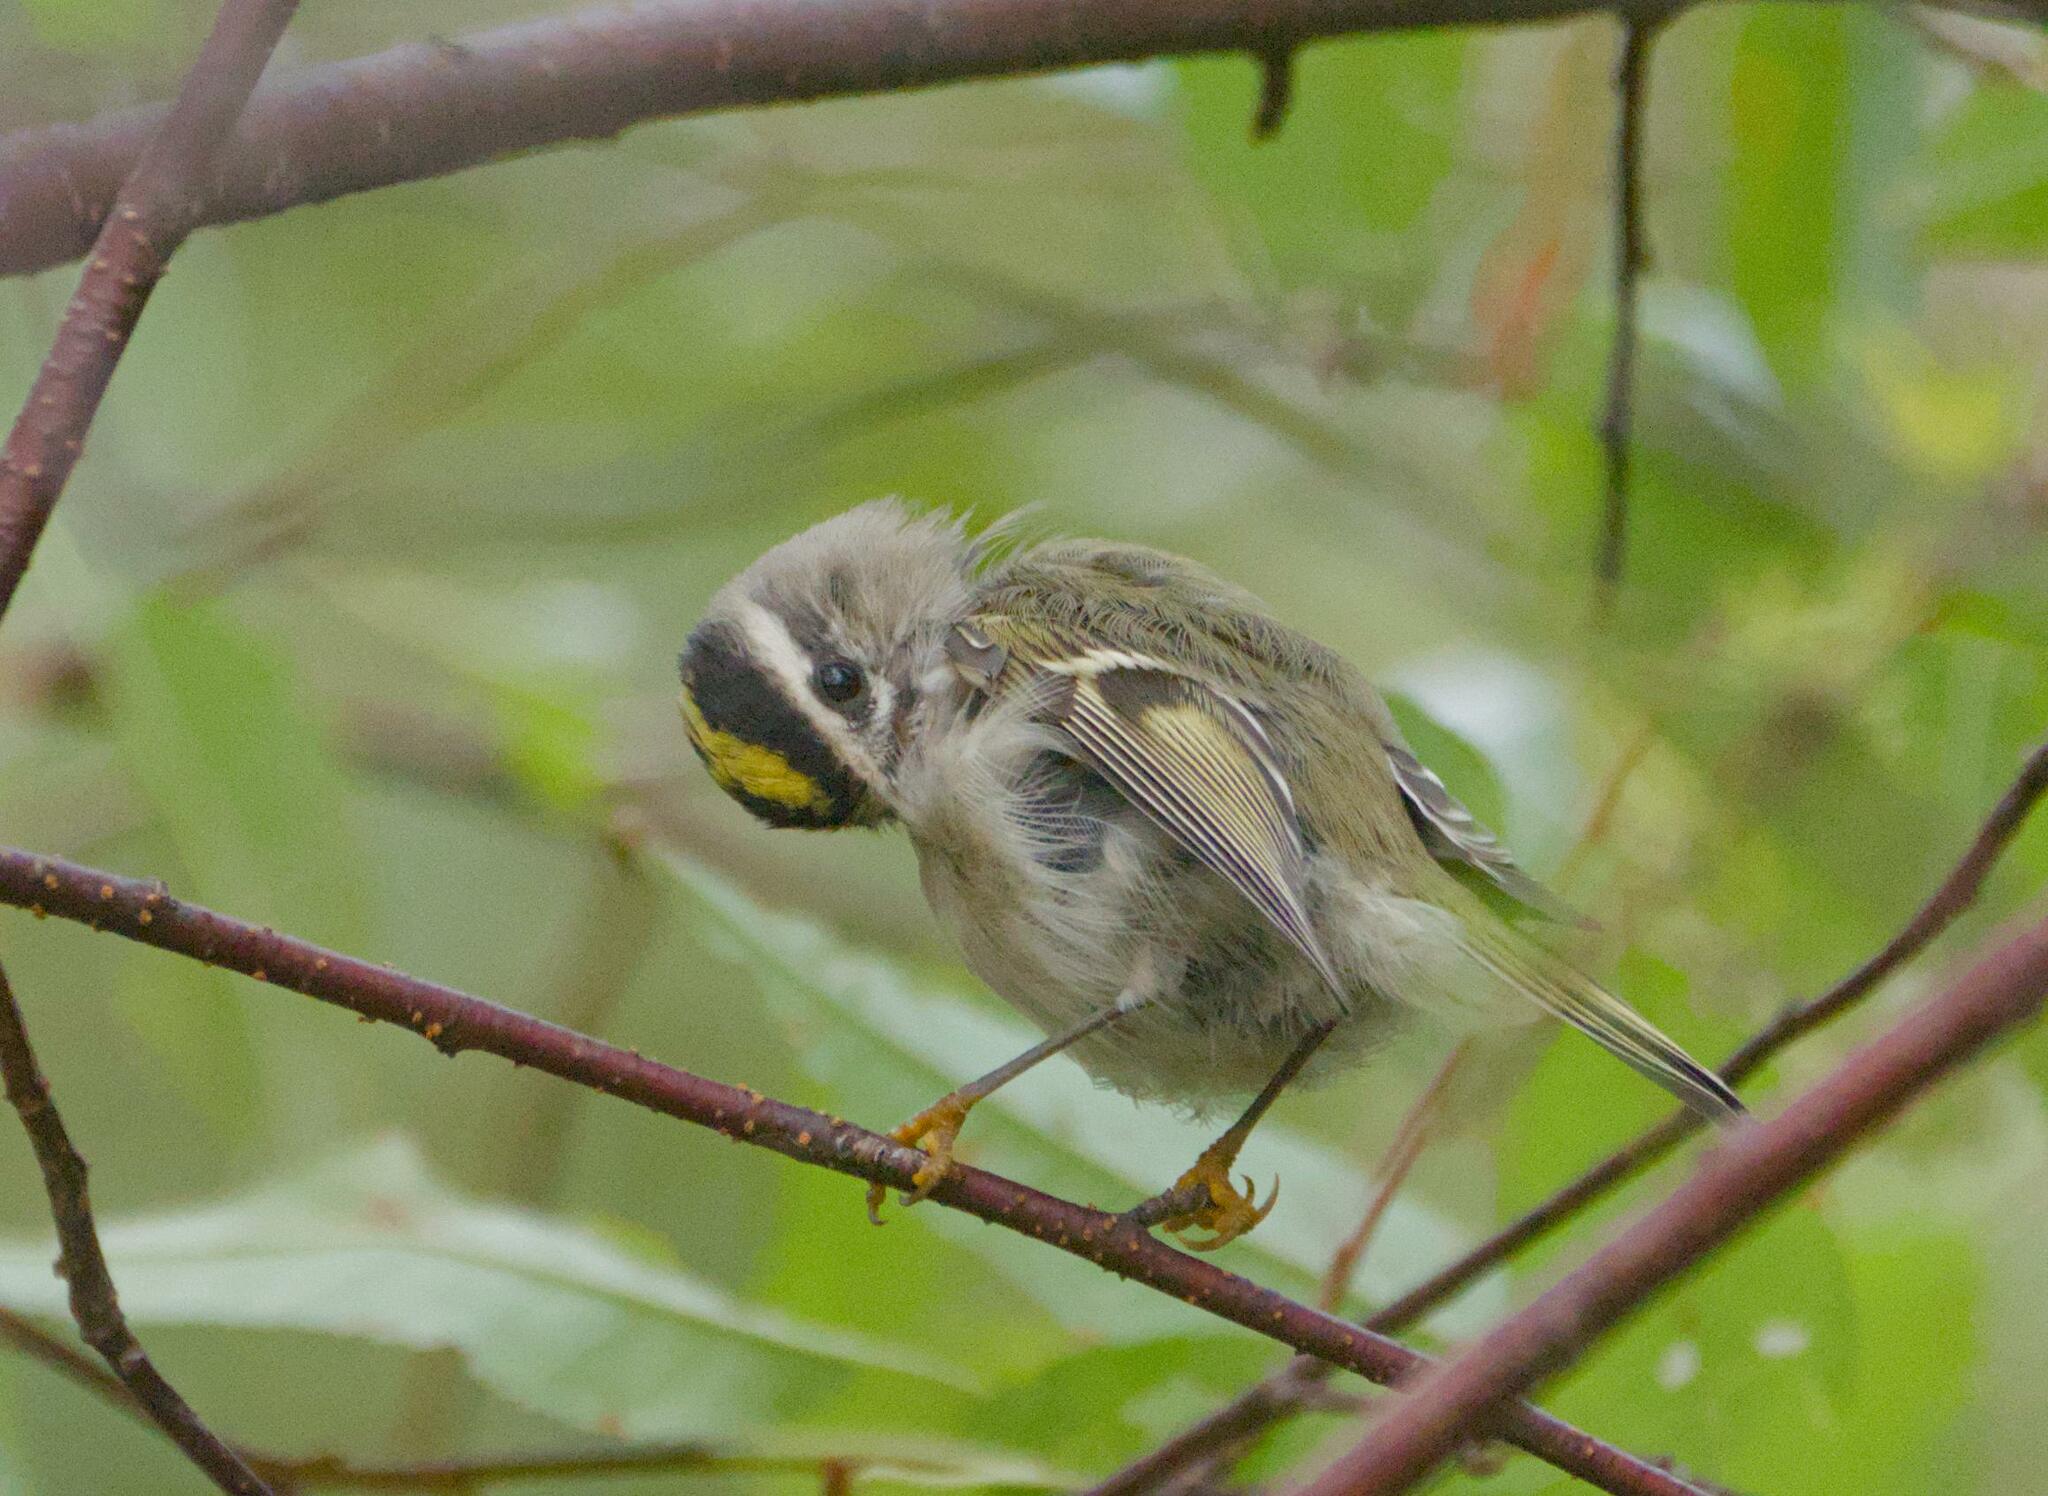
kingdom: Animalia
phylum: Chordata
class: Aves
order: Passeriformes
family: Regulidae
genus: Regulus
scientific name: Regulus satrapa
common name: Golden-crowned kinglet
